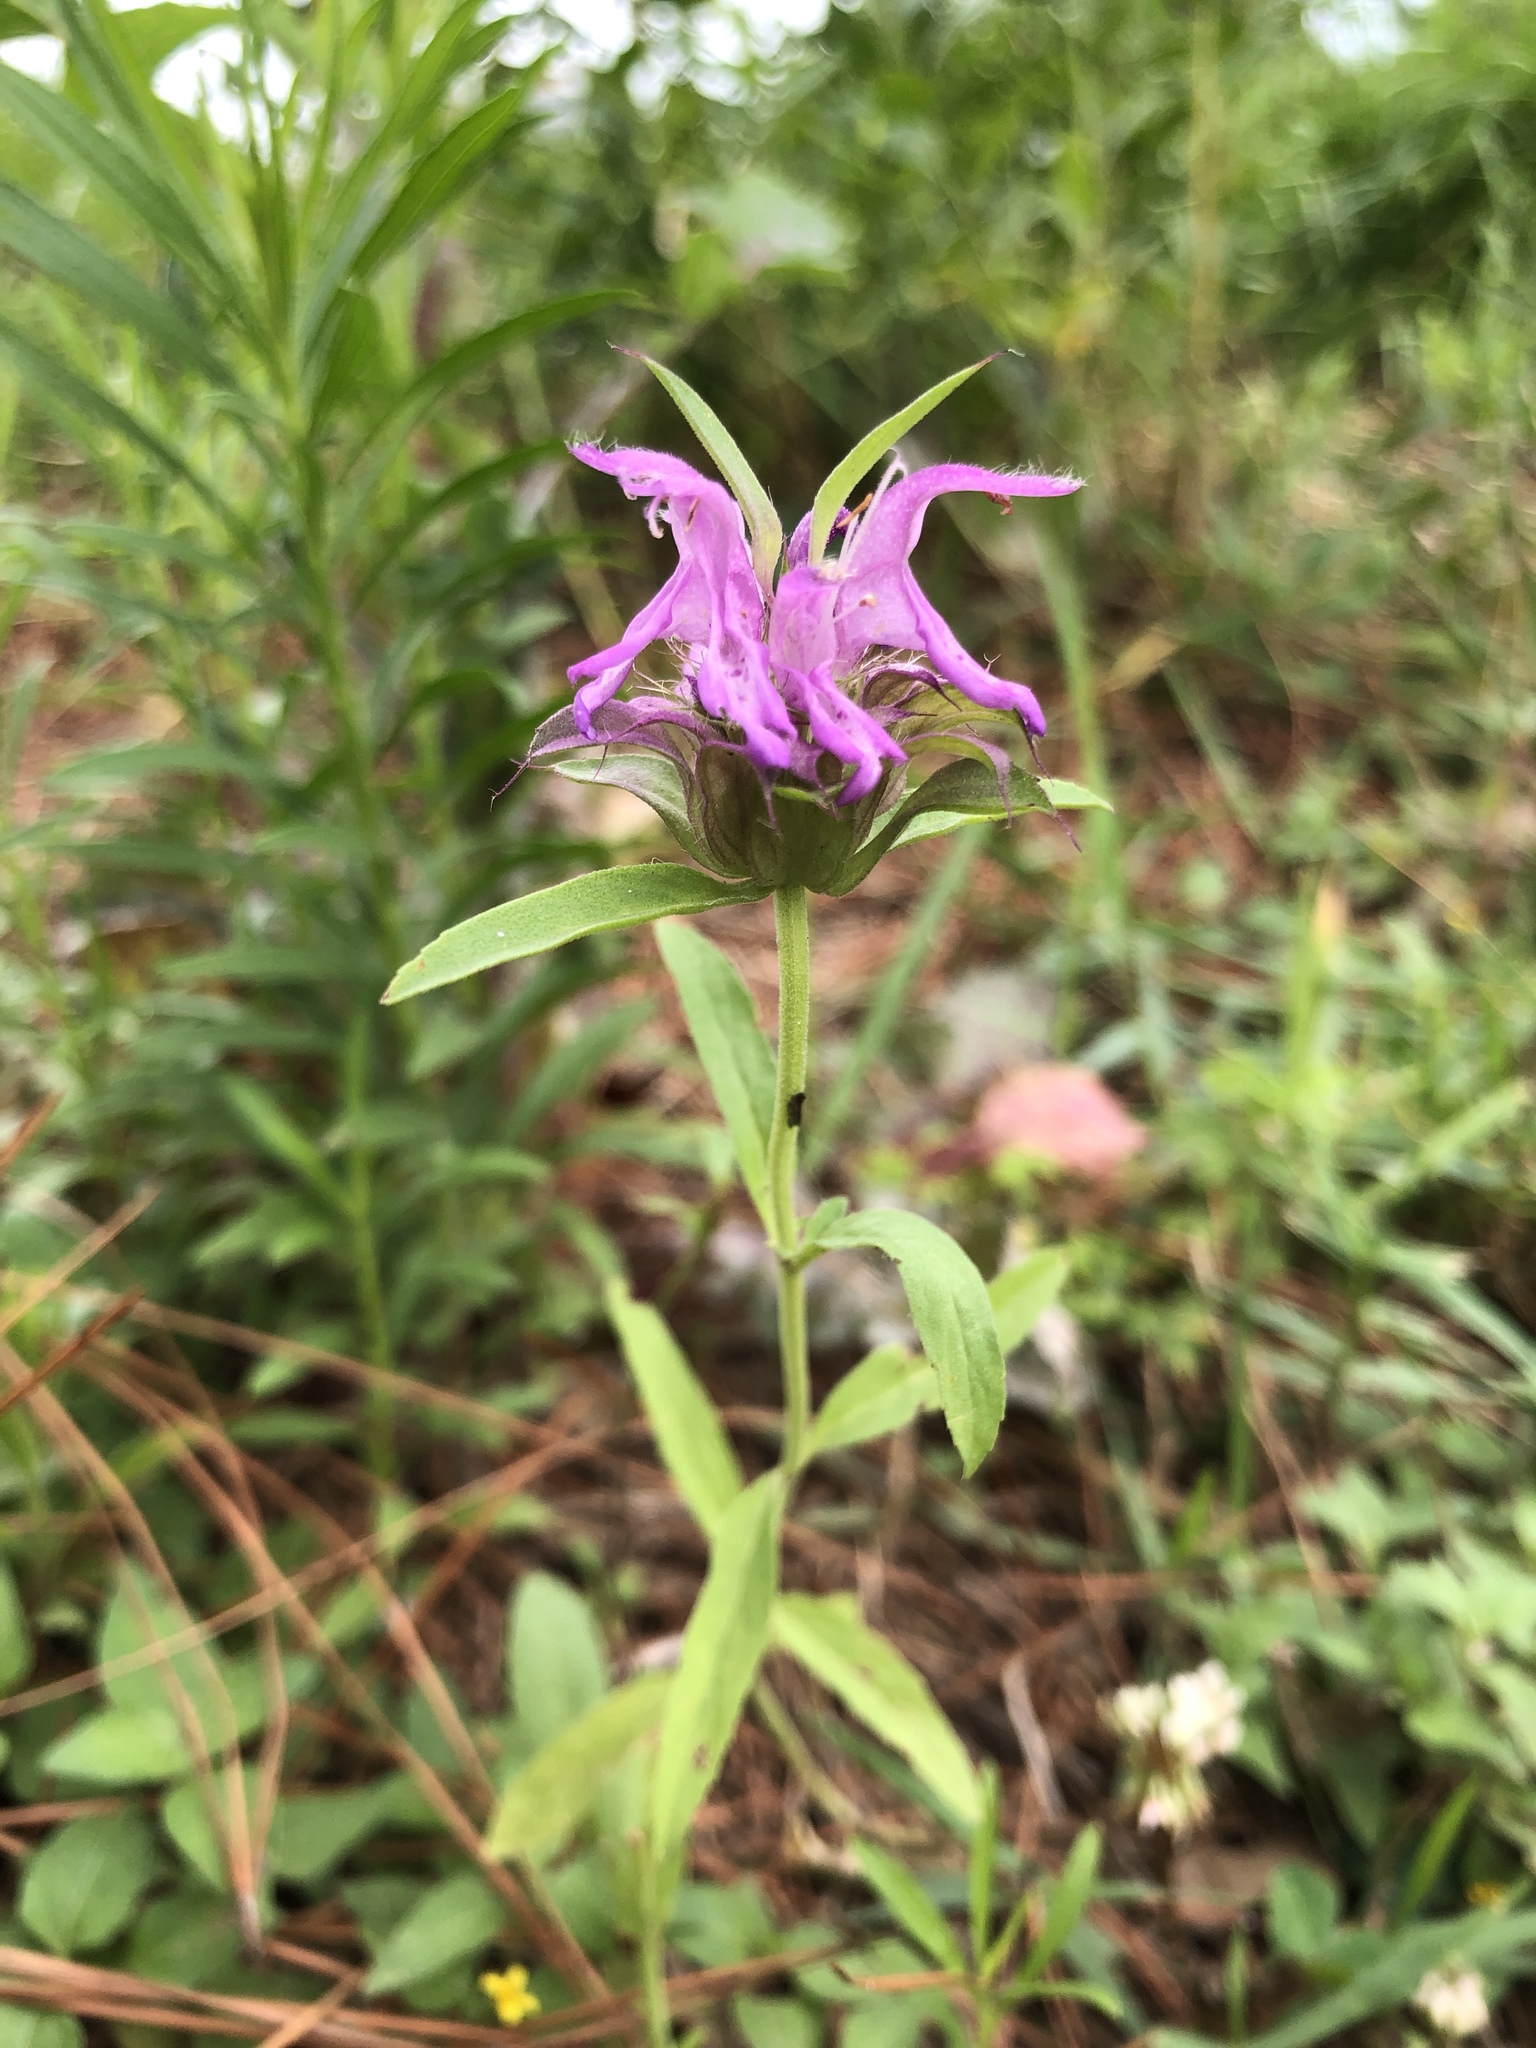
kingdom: Plantae
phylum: Tracheophyta
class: Magnoliopsida
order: Lamiales
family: Lamiaceae
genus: Monarda
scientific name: Monarda citriodora
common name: Lemon beebalm
